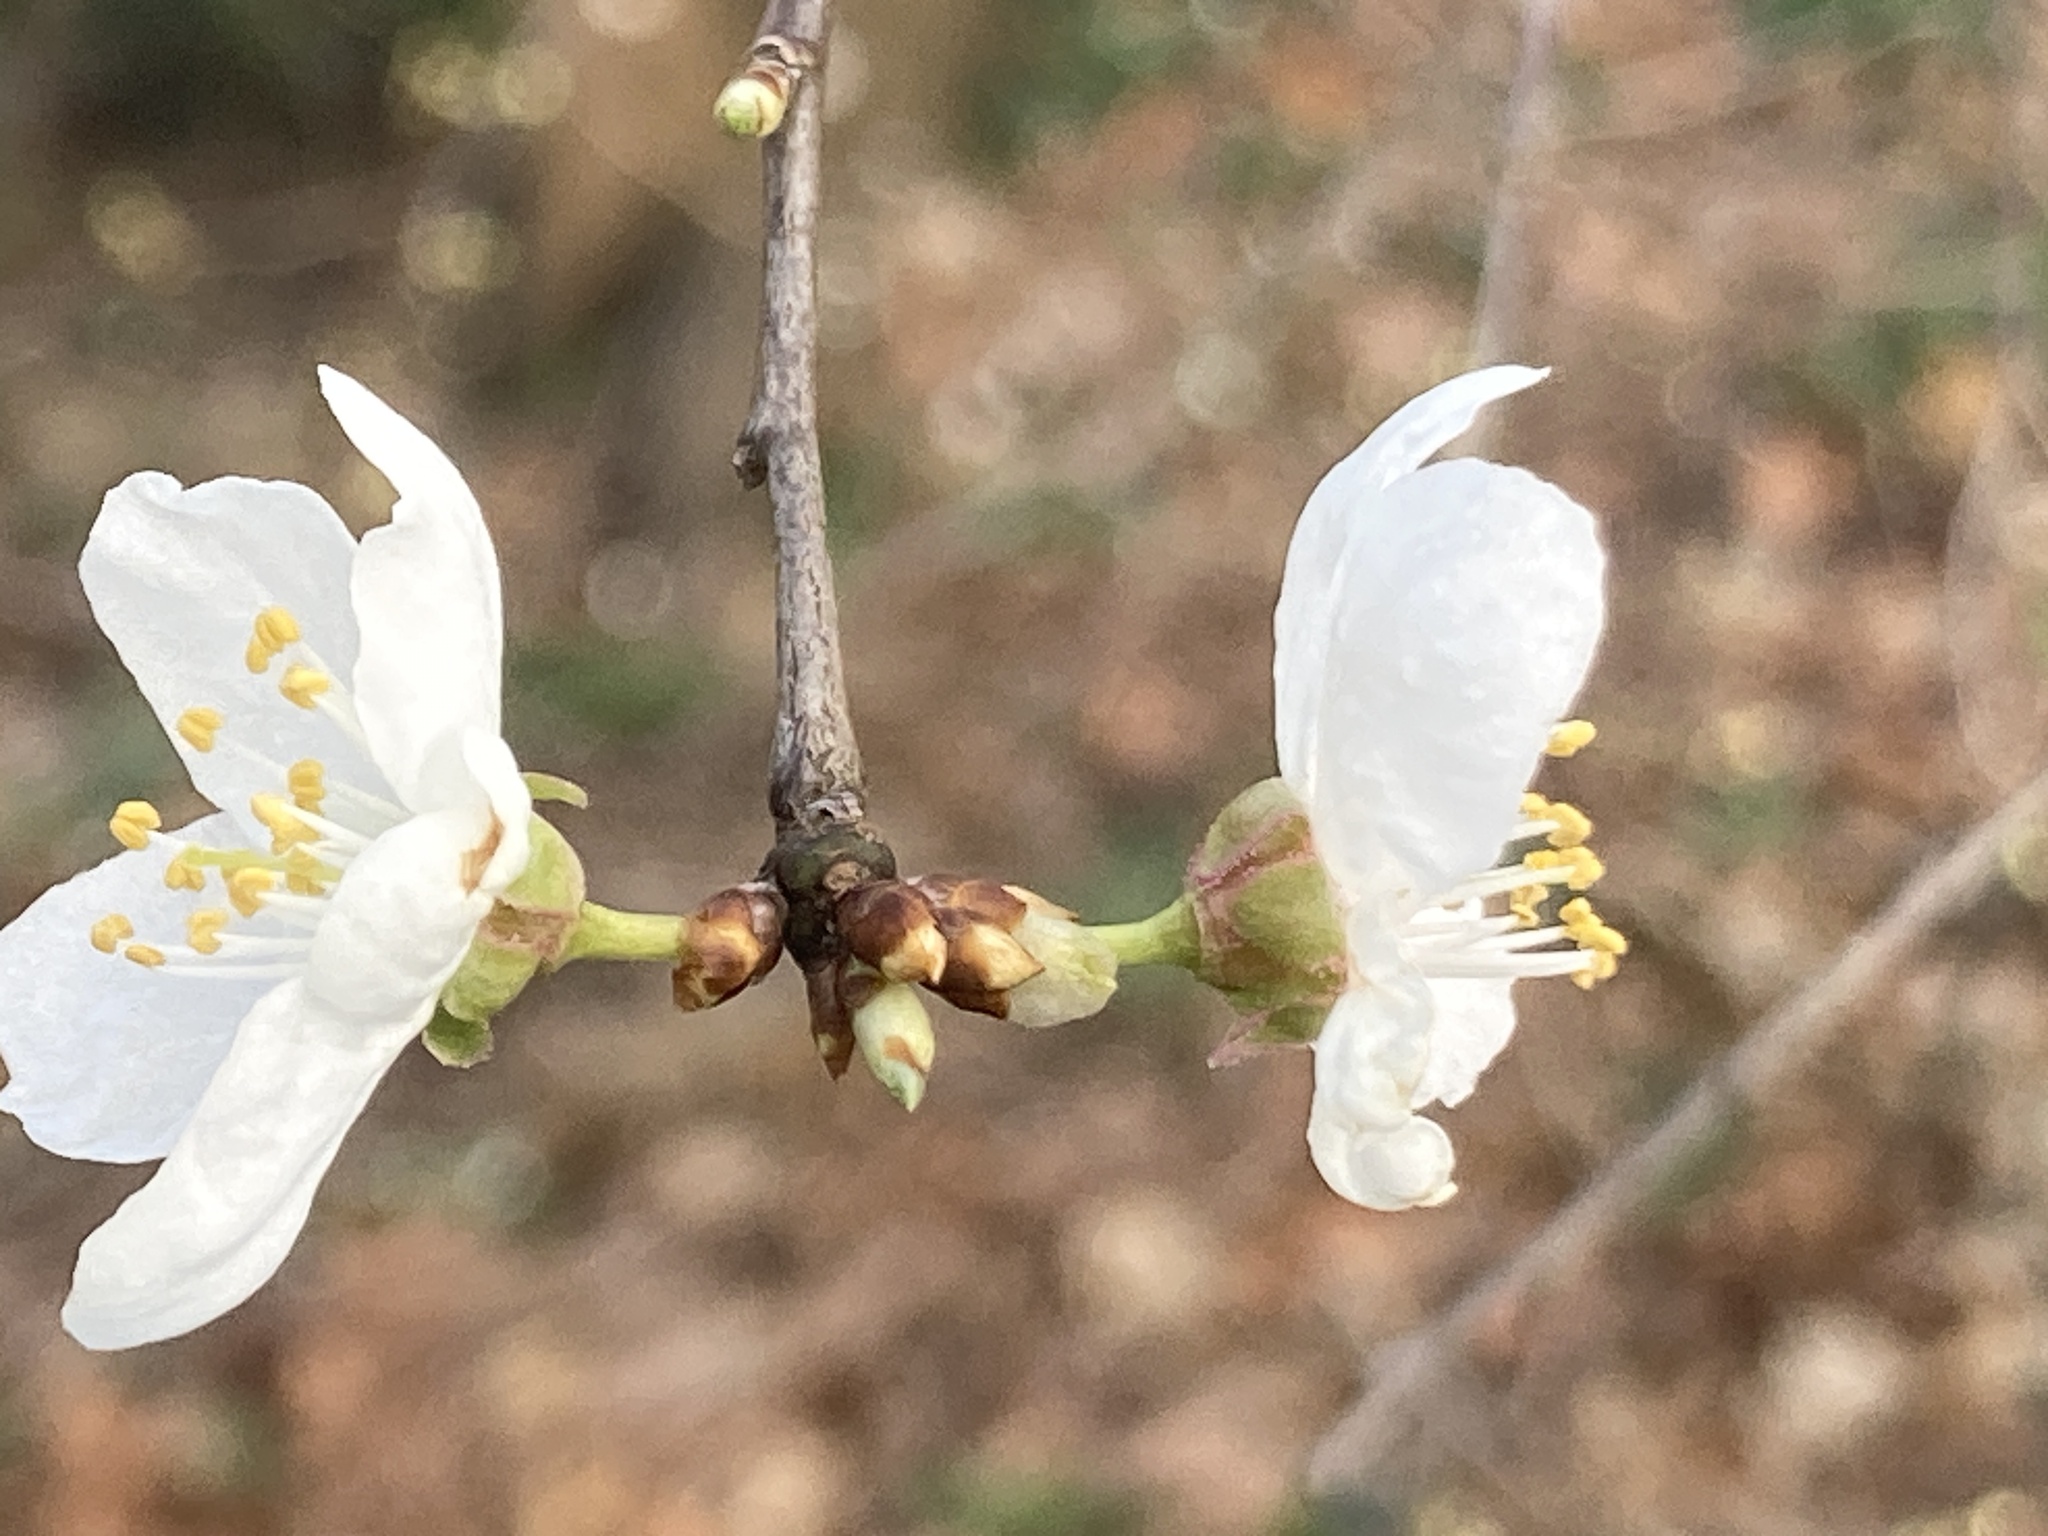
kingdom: Plantae
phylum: Tracheophyta
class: Magnoliopsida
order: Rosales
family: Rosaceae
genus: Prunus
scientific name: Prunus cerasifera
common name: Cherry plum
